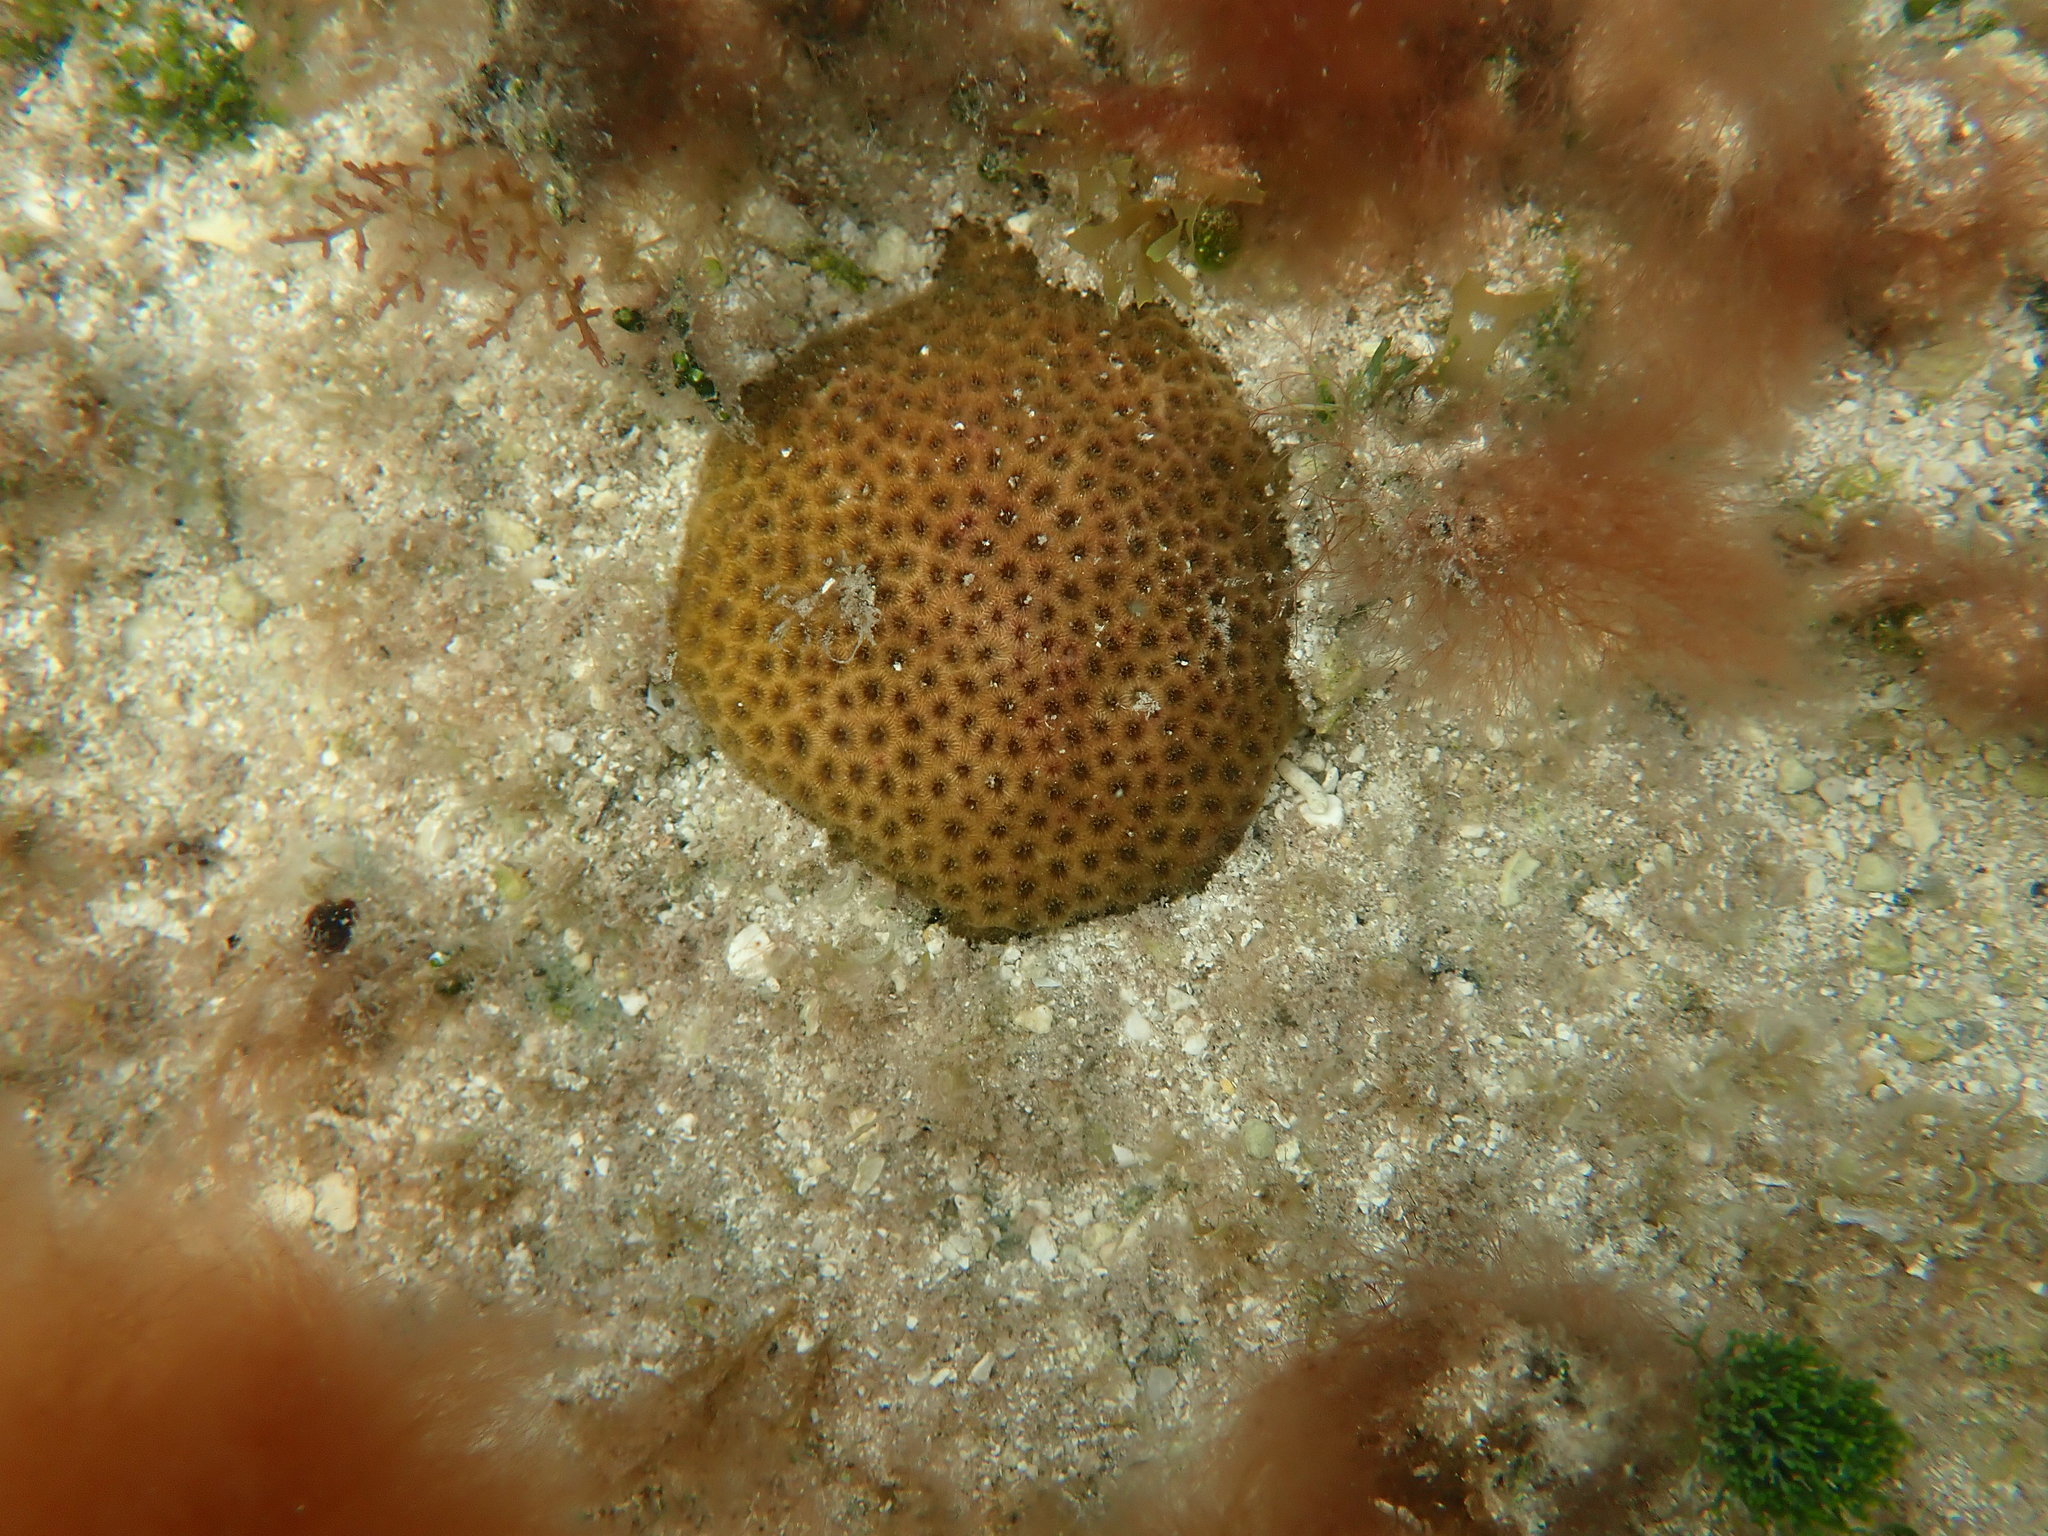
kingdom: Animalia
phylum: Cnidaria
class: Anthozoa
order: Scleractinia
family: Rhizangiidae
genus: Siderastrea
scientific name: Siderastrea radians
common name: Lesser starlet coral
